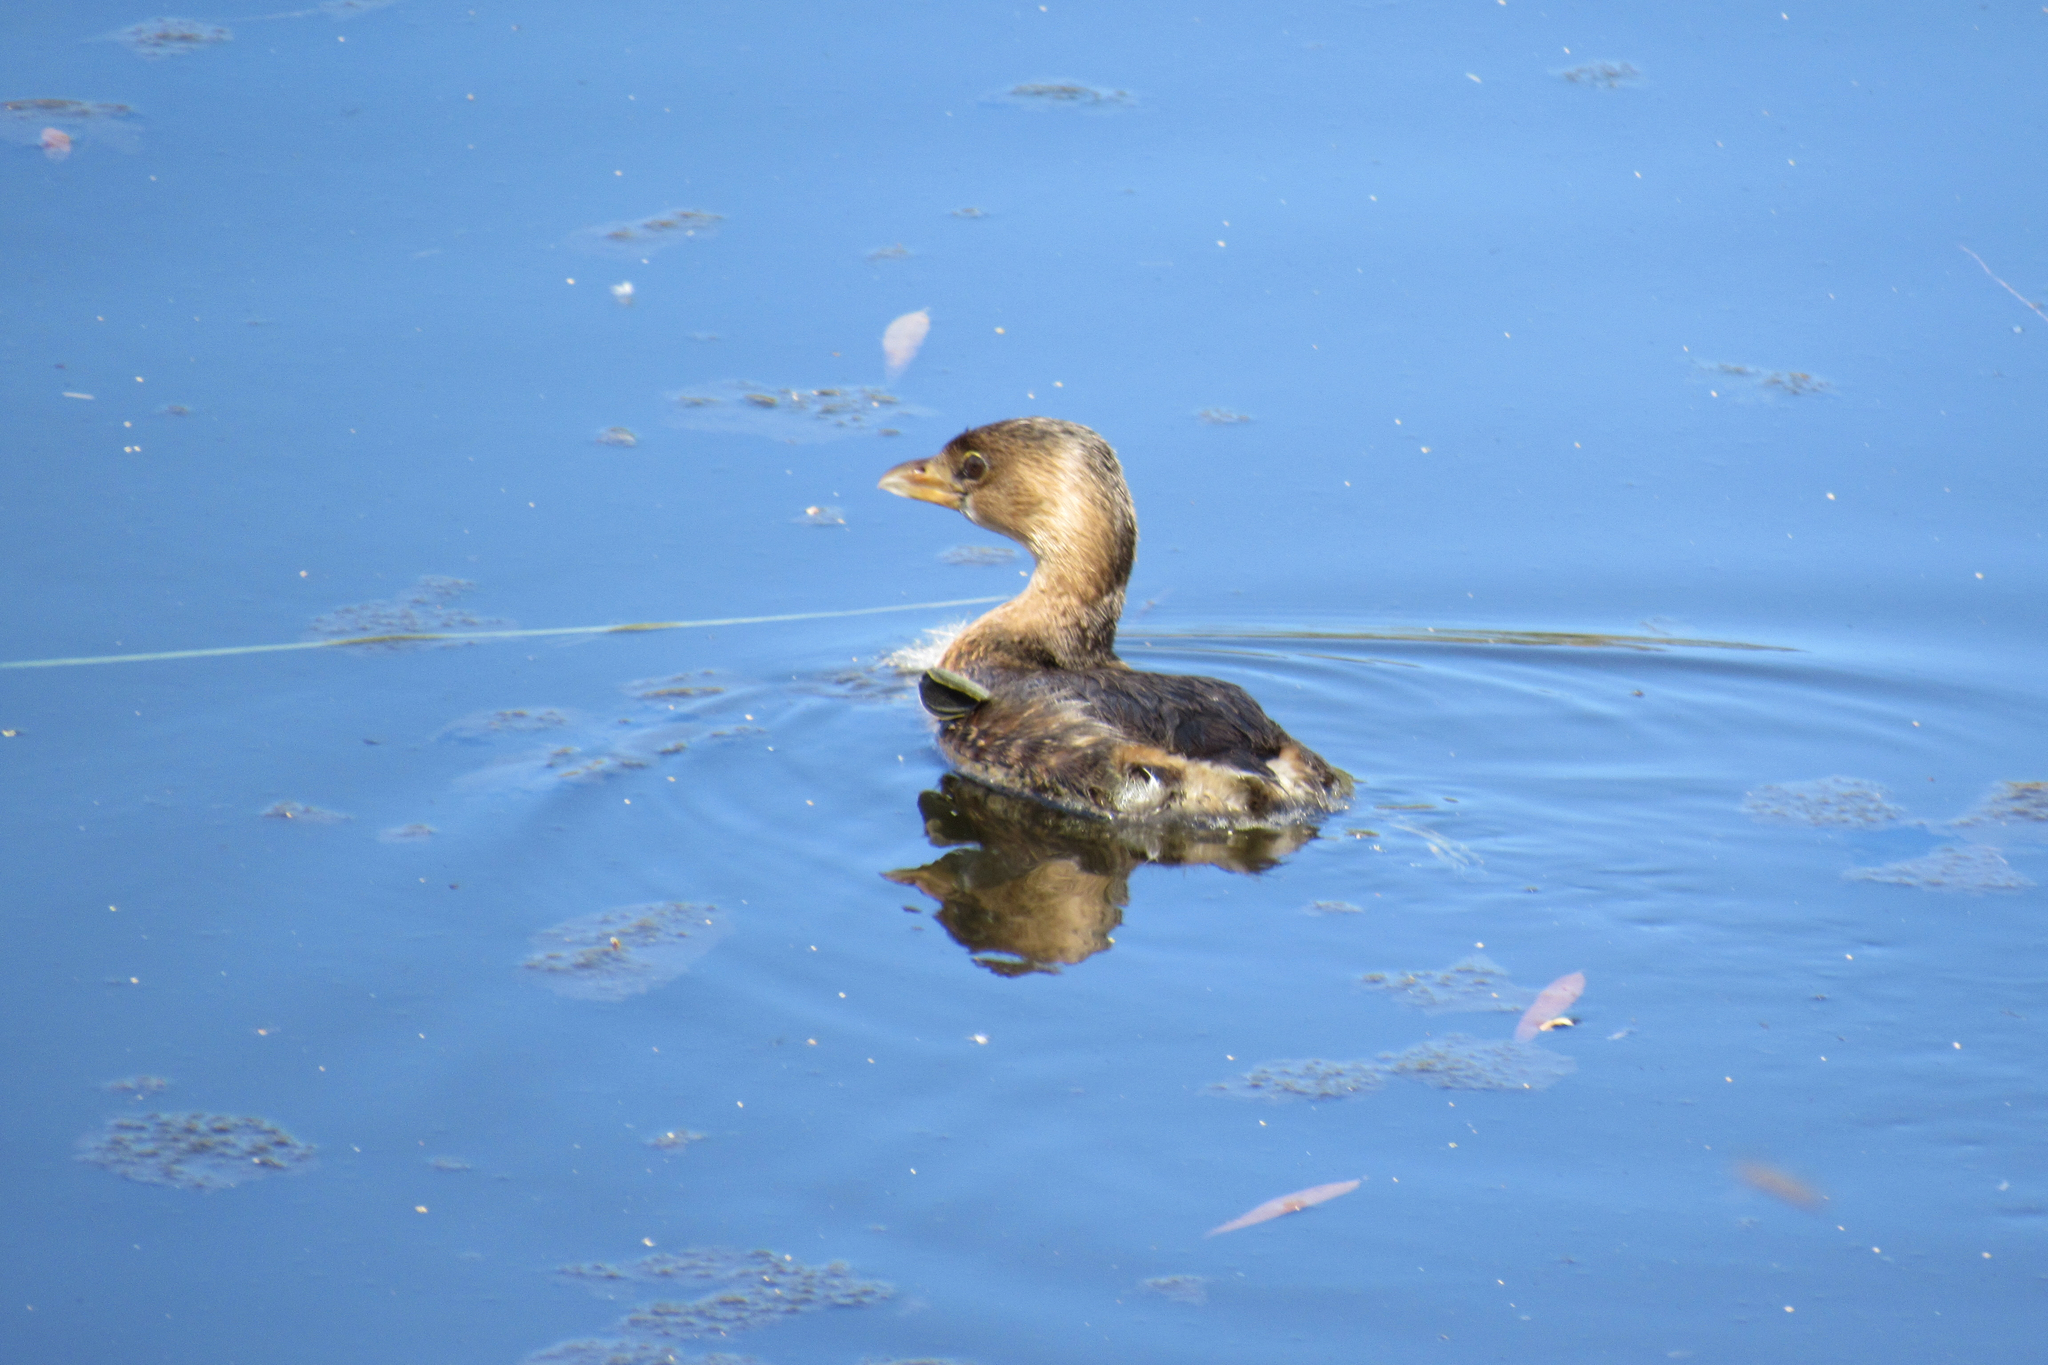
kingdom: Animalia
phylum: Chordata
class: Aves
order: Podicipediformes
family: Podicipedidae
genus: Podilymbus
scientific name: Podilymbus podiceps
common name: Pied-billed grebe
